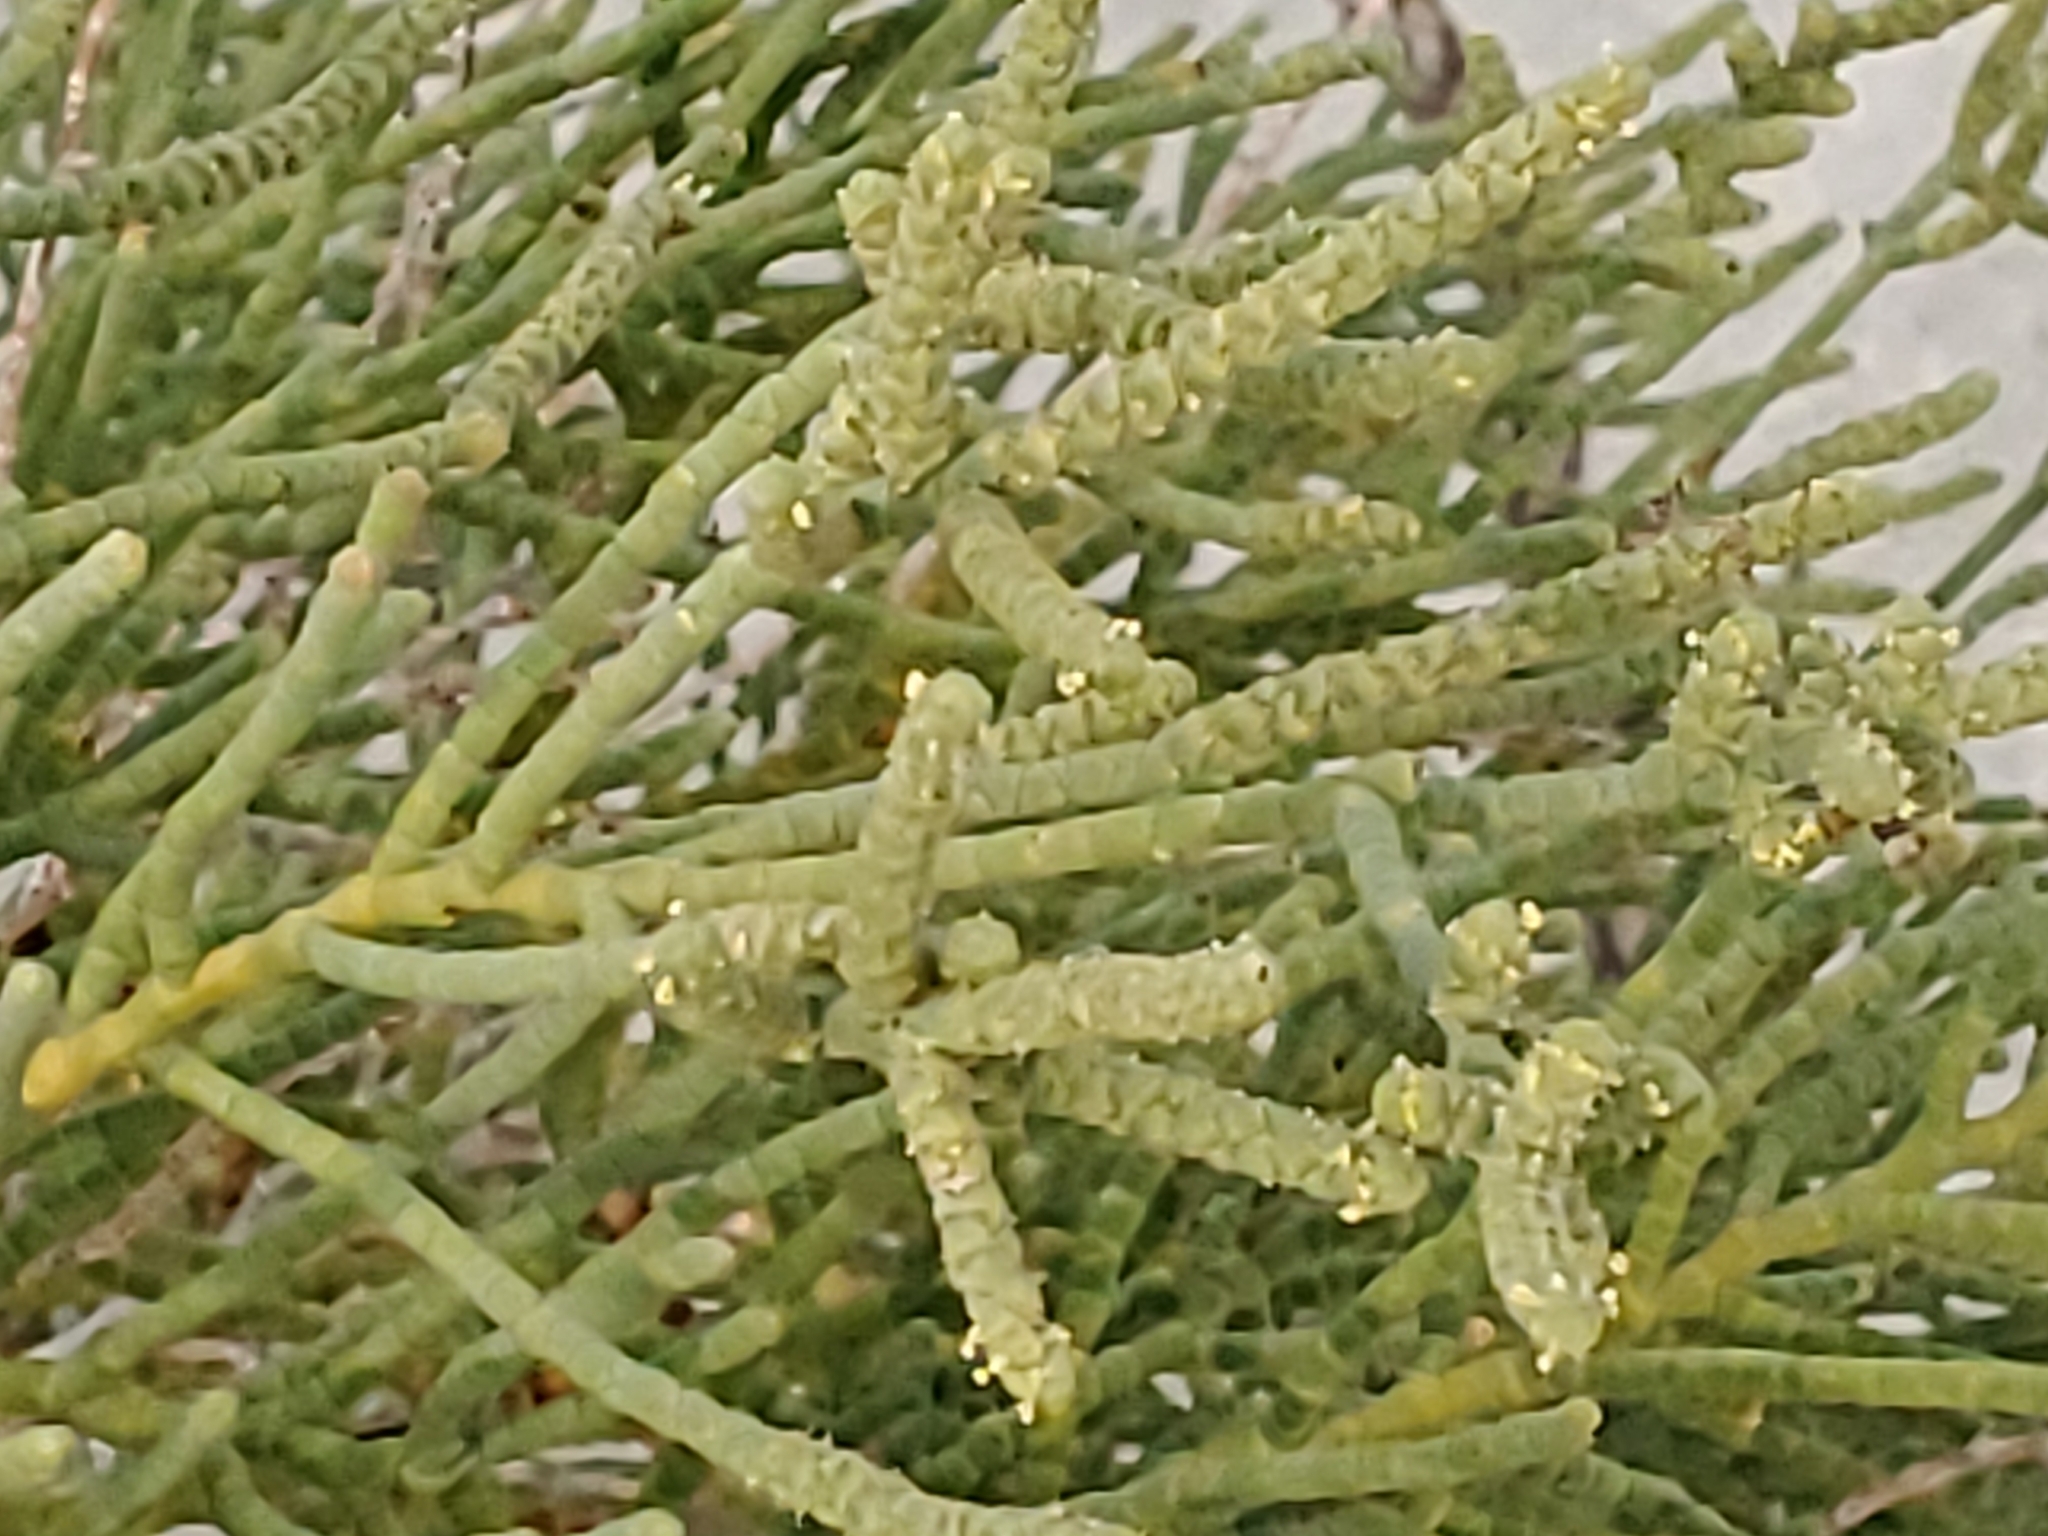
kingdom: Plantae
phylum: Tracheophyta
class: Magnoliopsida
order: Caryophyllales
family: Amaranthaceae
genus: Allenrolfea
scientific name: Allenrolfea occidentalis
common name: Iodine-bush
